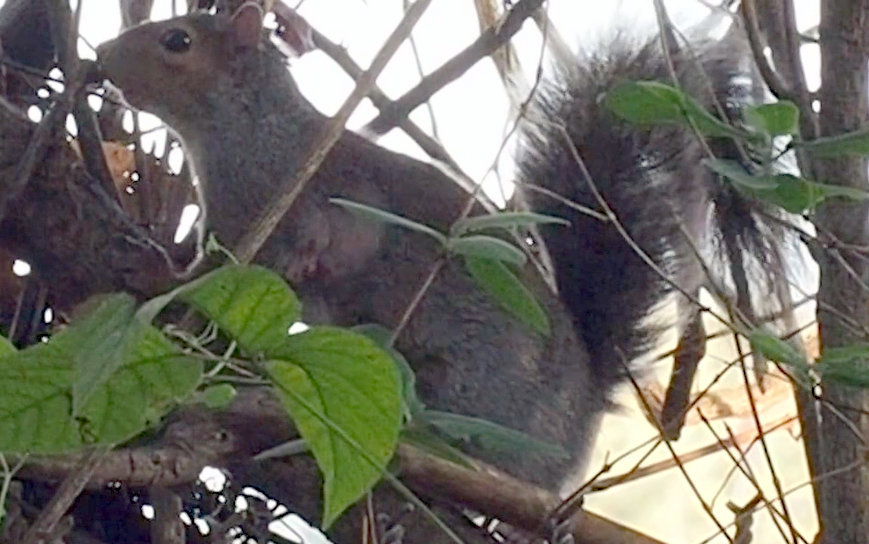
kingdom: Animalia
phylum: Chordata
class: Mammalia
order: Rodentia
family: Sciuridae
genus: Sciurus
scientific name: Sciurus carolinensis
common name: Eastern gray squirrel
